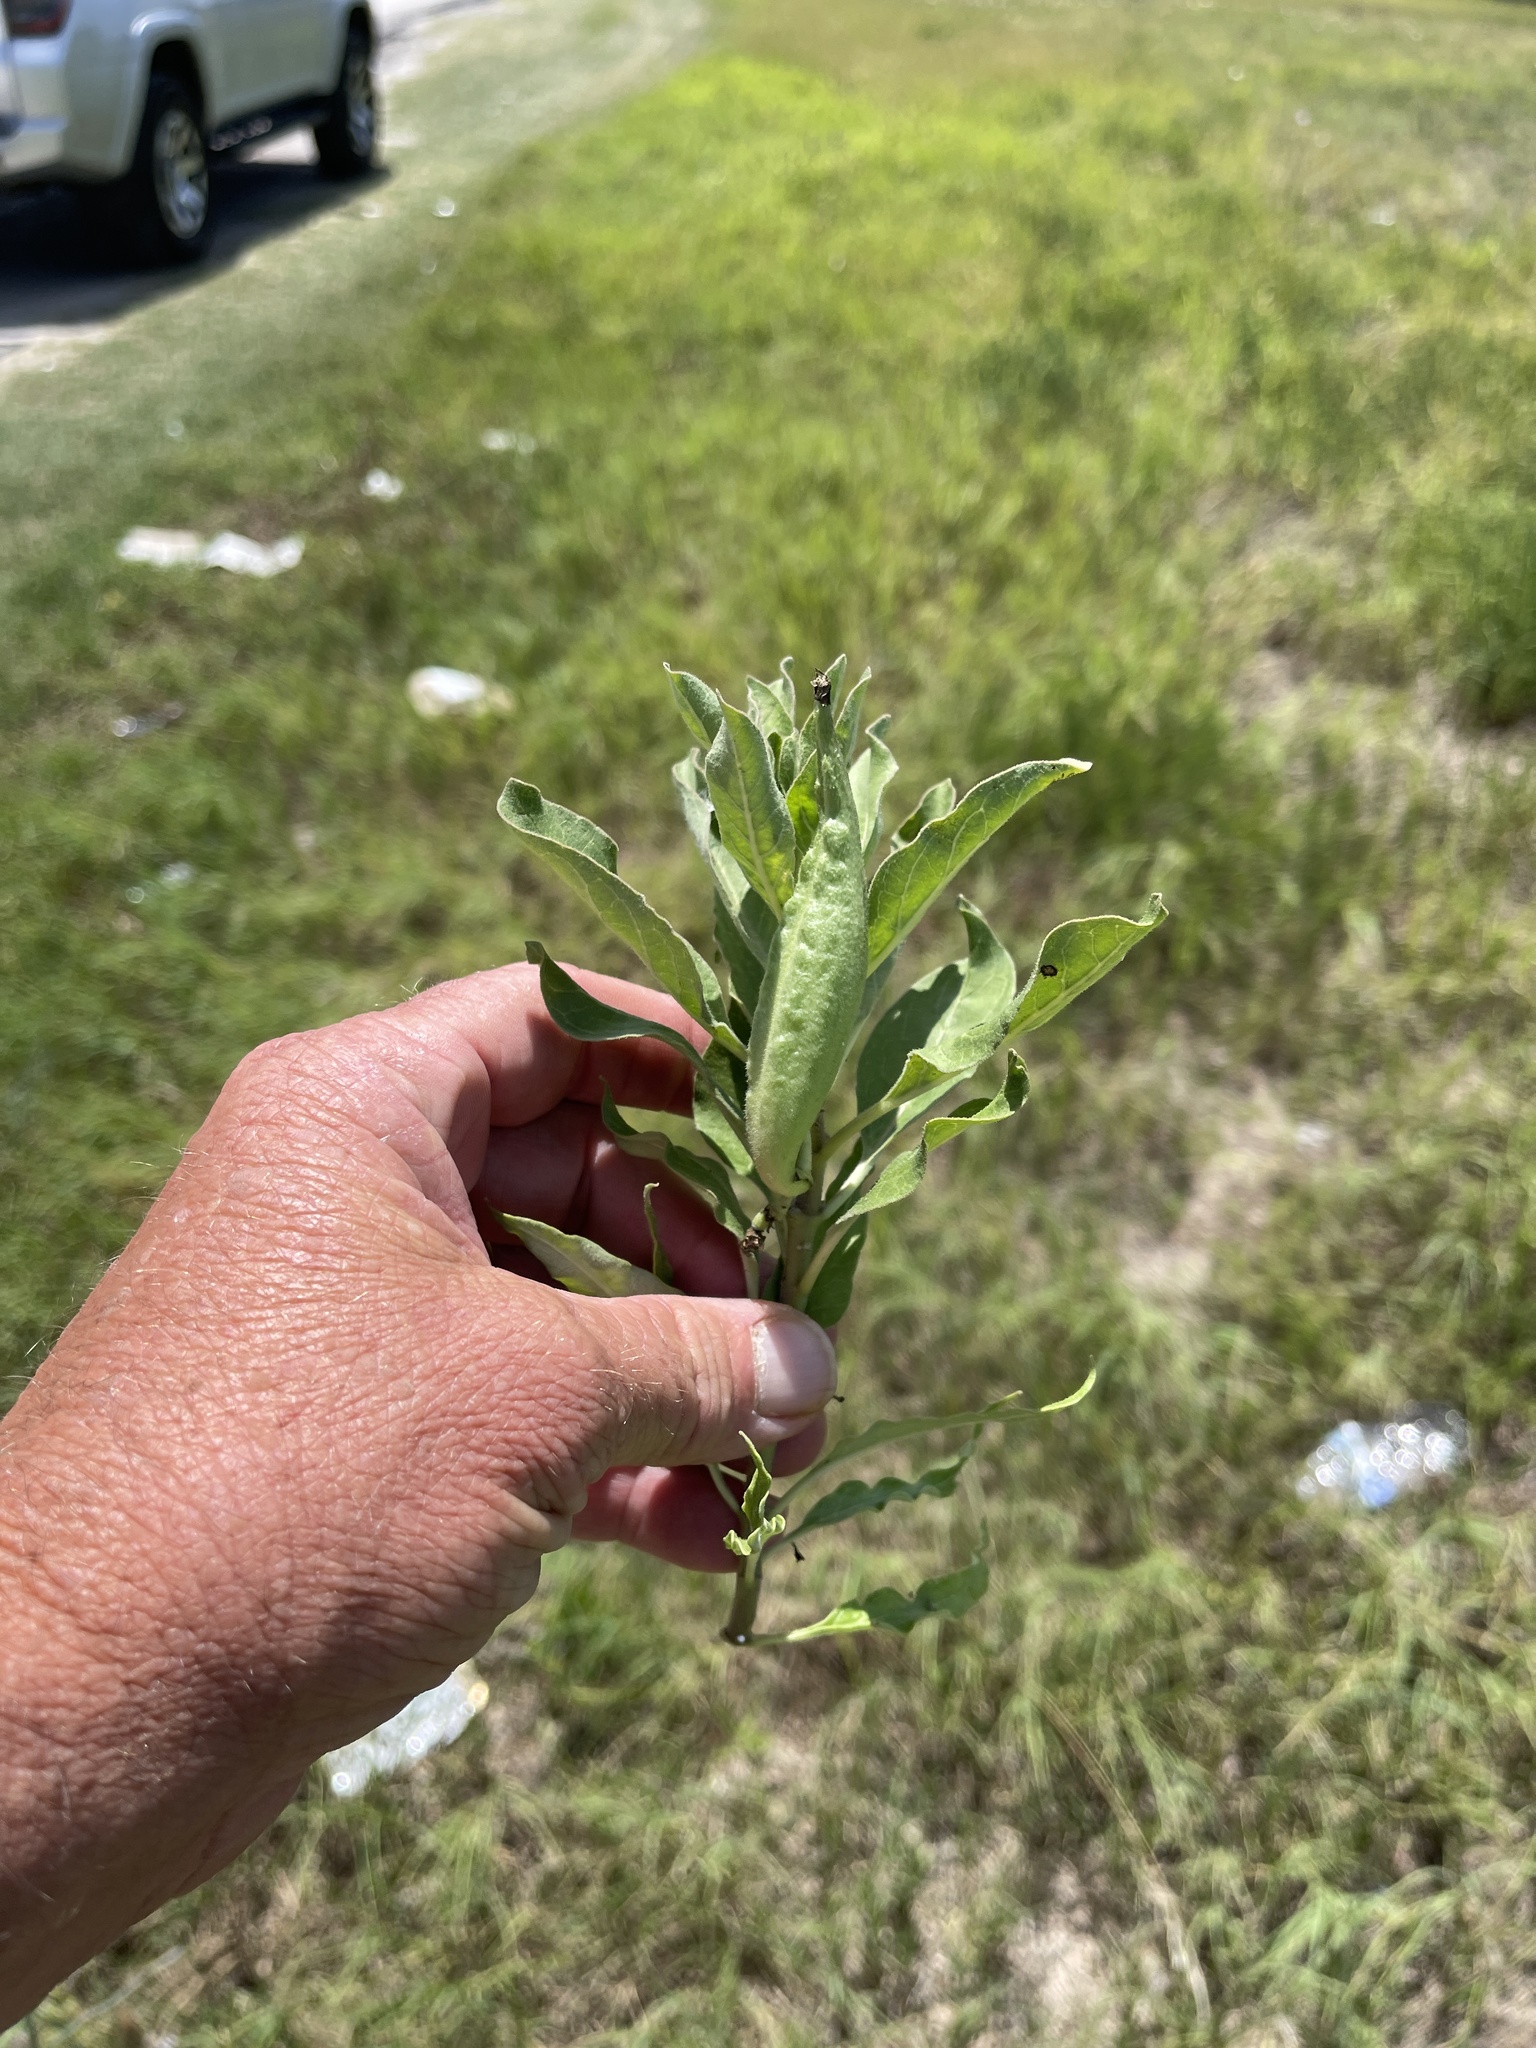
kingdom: Plantae
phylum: Tracheophyta
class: Magnoliopsida
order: Gentianales
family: Apocynaceae
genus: Asclepias
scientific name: Asclepias oenotheroides
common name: Zizotes milkweed
